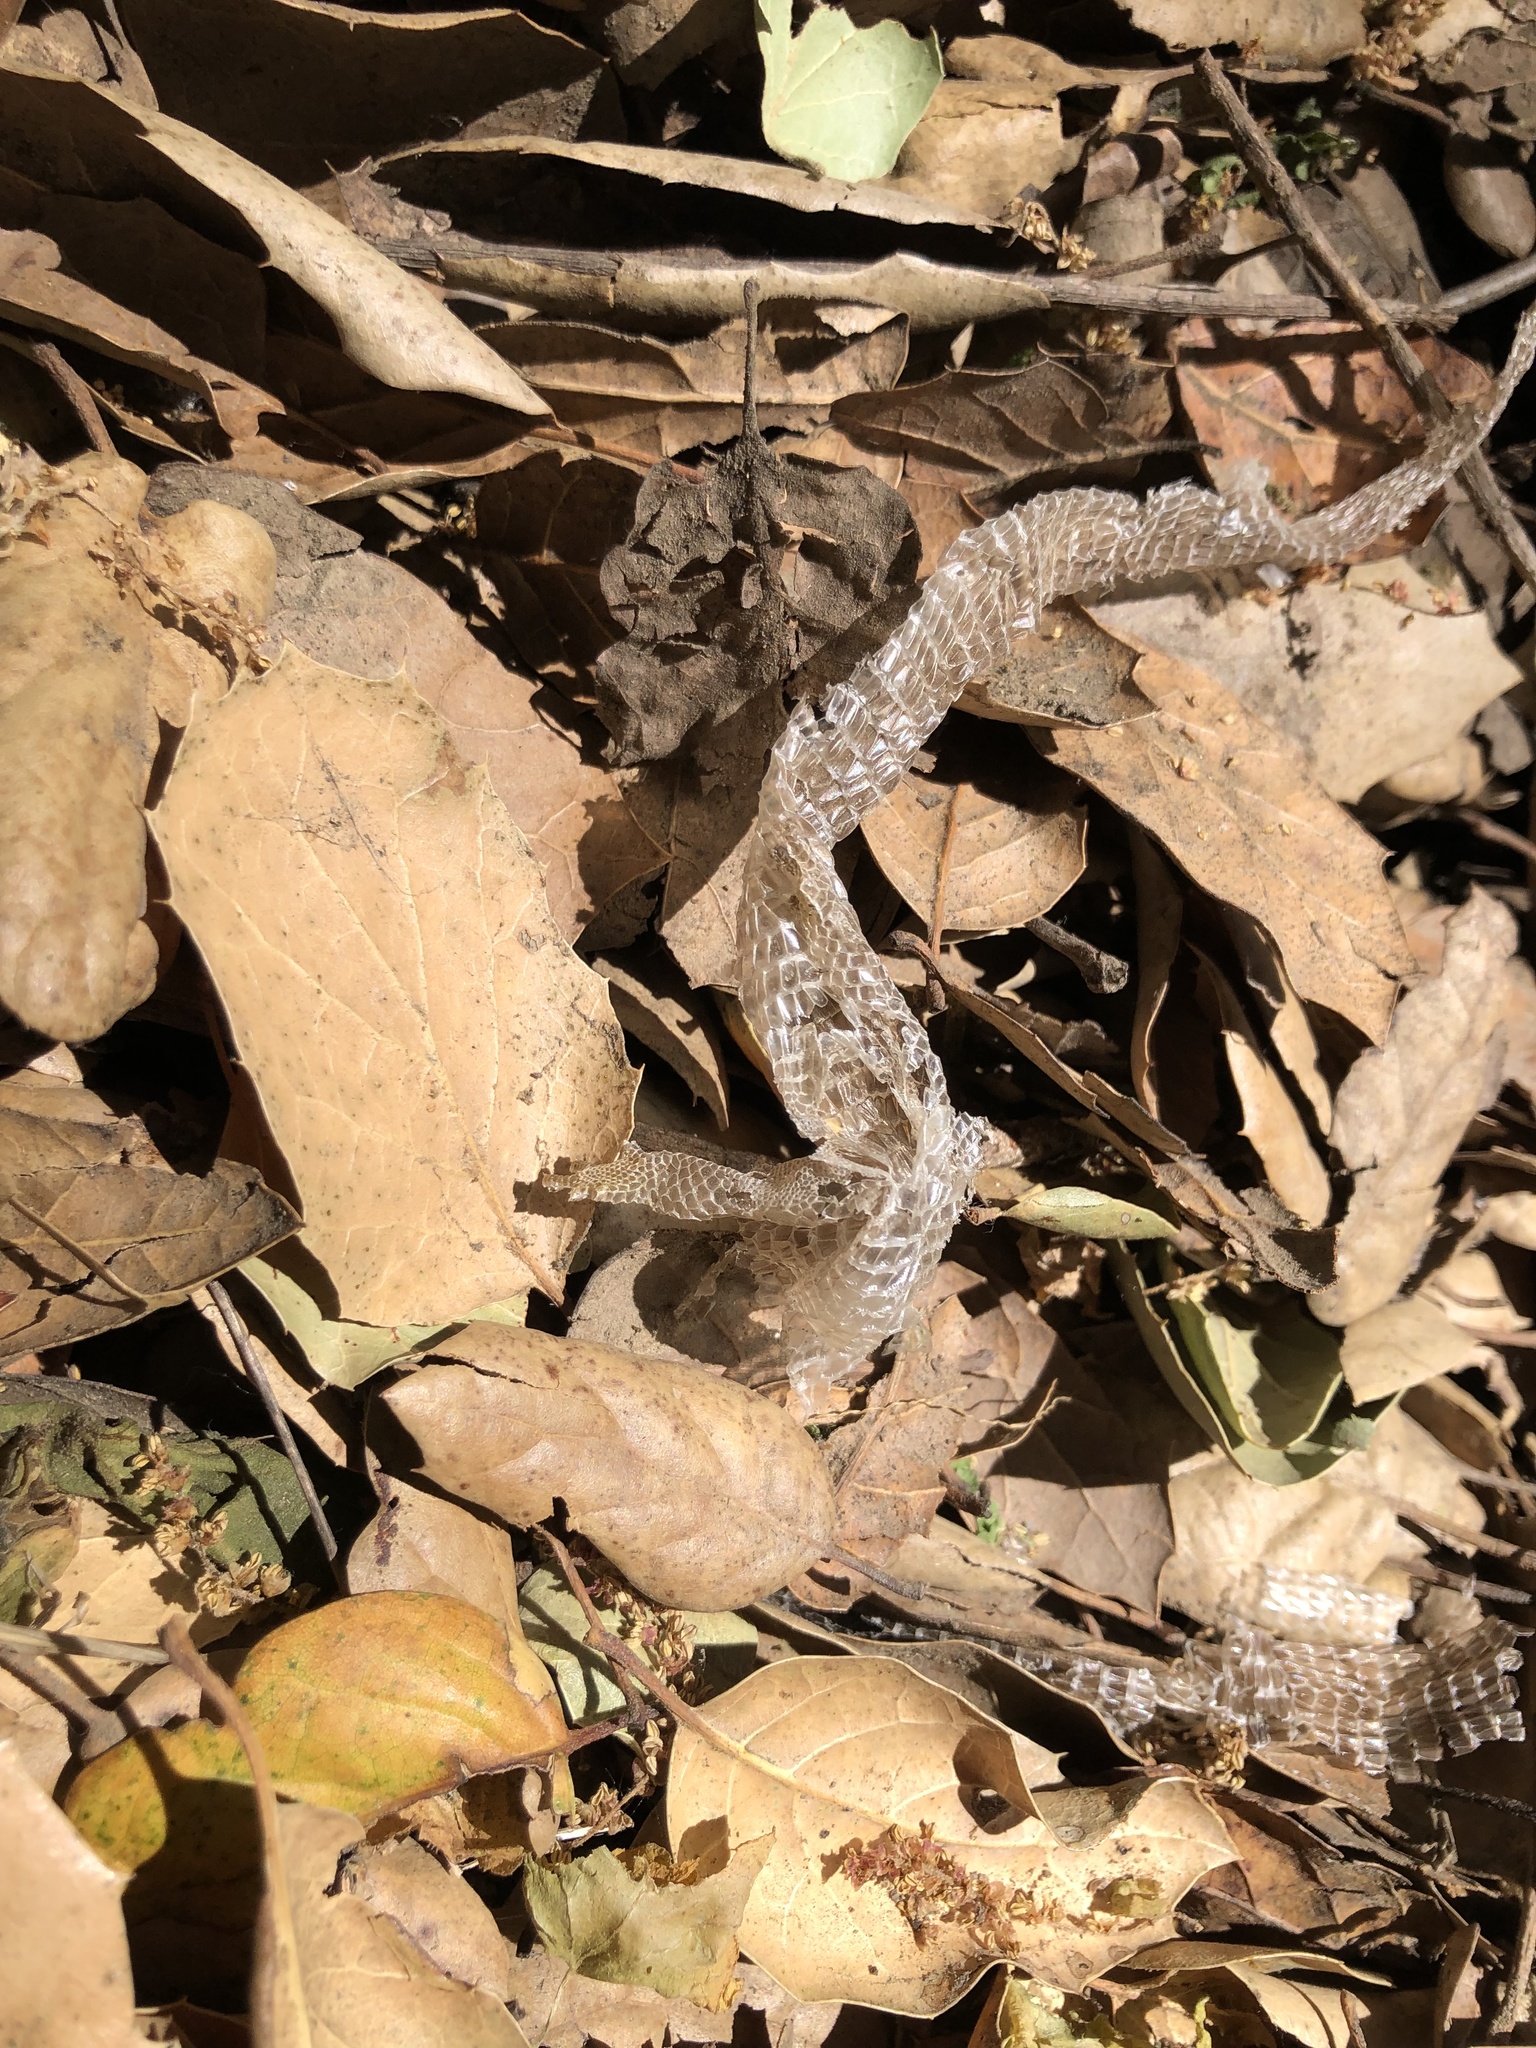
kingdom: Animalia
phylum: Chordata
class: Squamata
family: Anguidae
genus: Elgaria
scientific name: Elgaria multicarinata
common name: Southern alligator lizard
